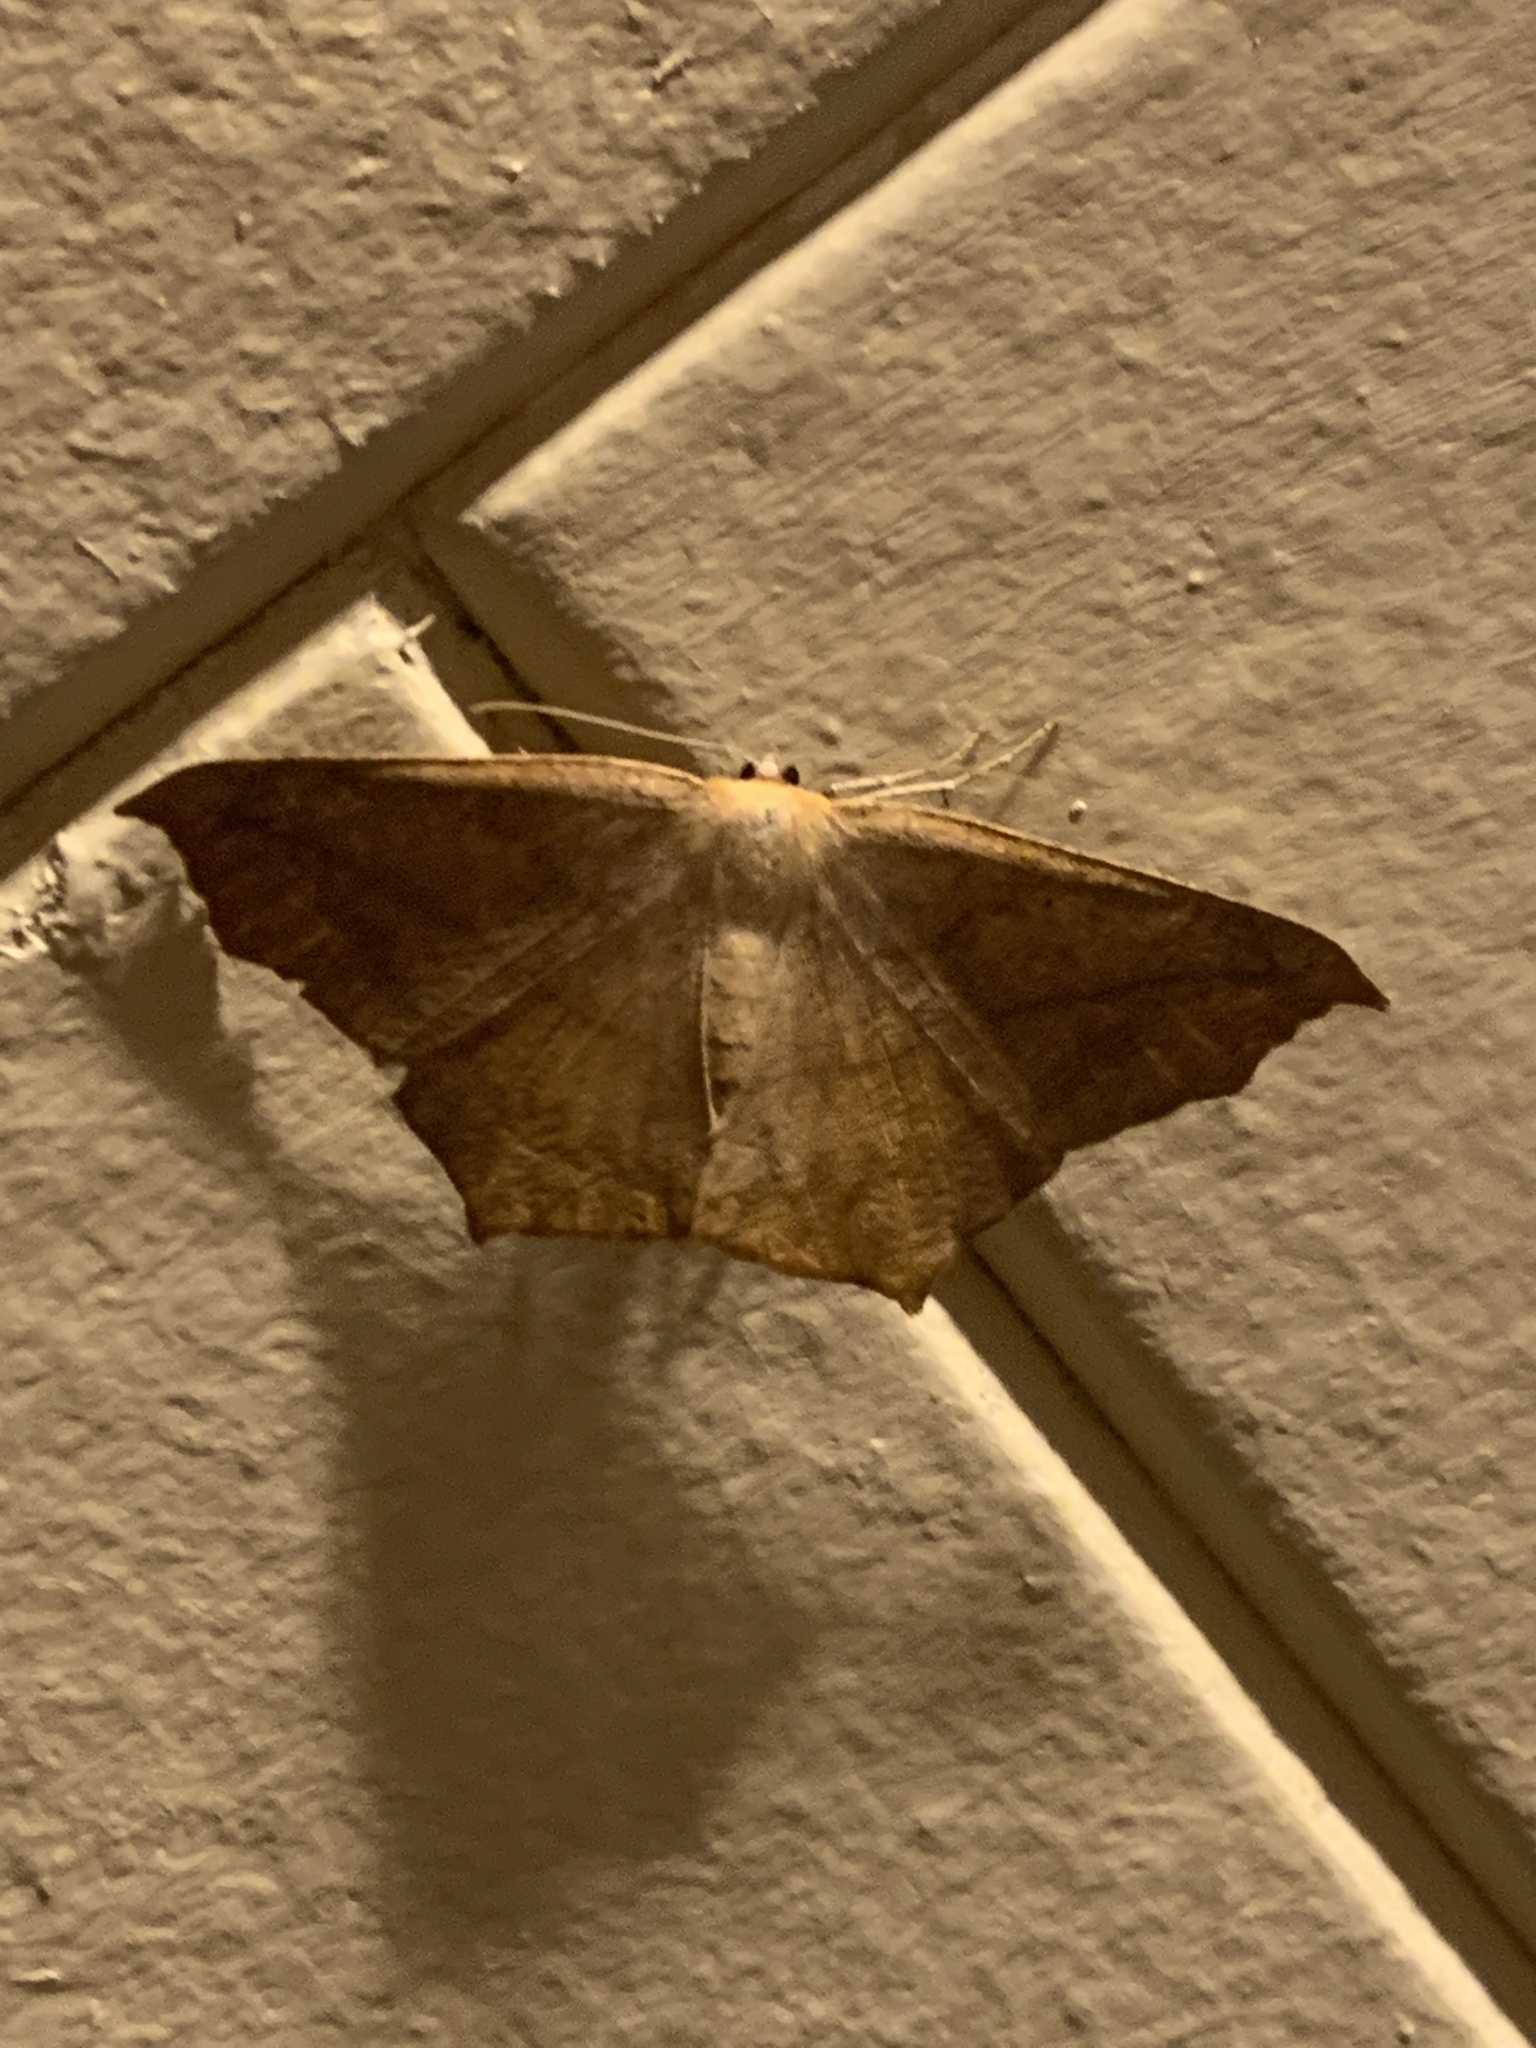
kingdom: Animalia
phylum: Arthropoda
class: Insecta
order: Lepidoptera
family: Geometridae
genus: Prochoerodes
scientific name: Prochoerodes lineola
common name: Large maple spanworm
